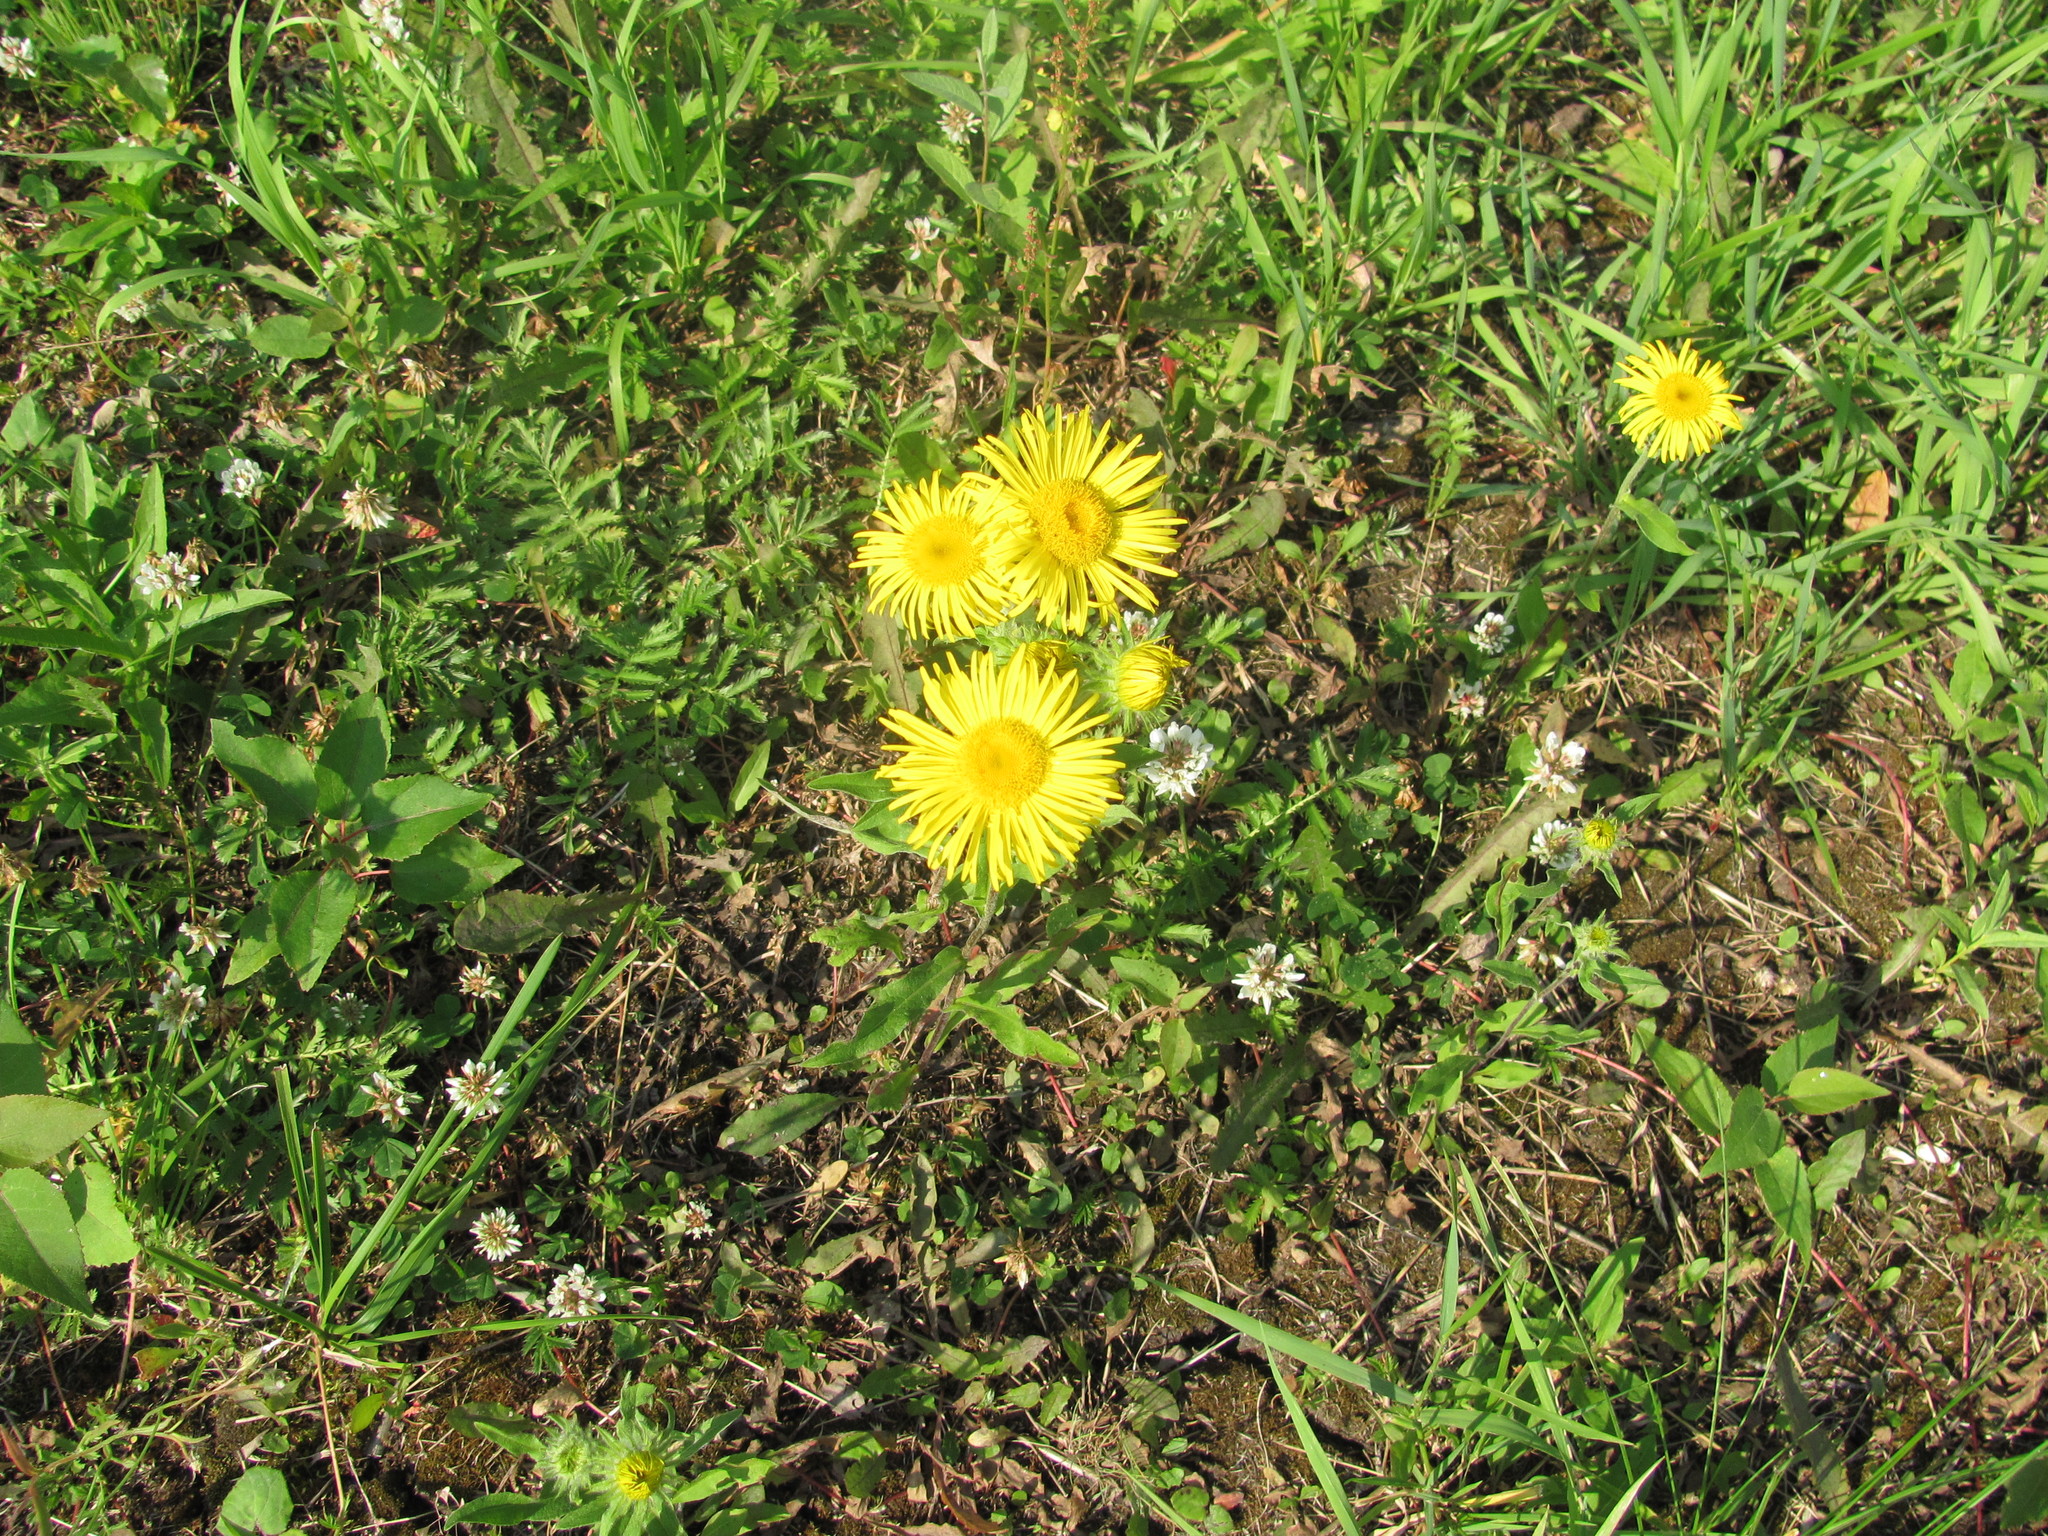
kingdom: Plantae
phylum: Tracheophyta
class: Magnoliopsida
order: Asterales
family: Asteraceae
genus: Pentanema
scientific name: Pentanema britannicum
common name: British elecampane
